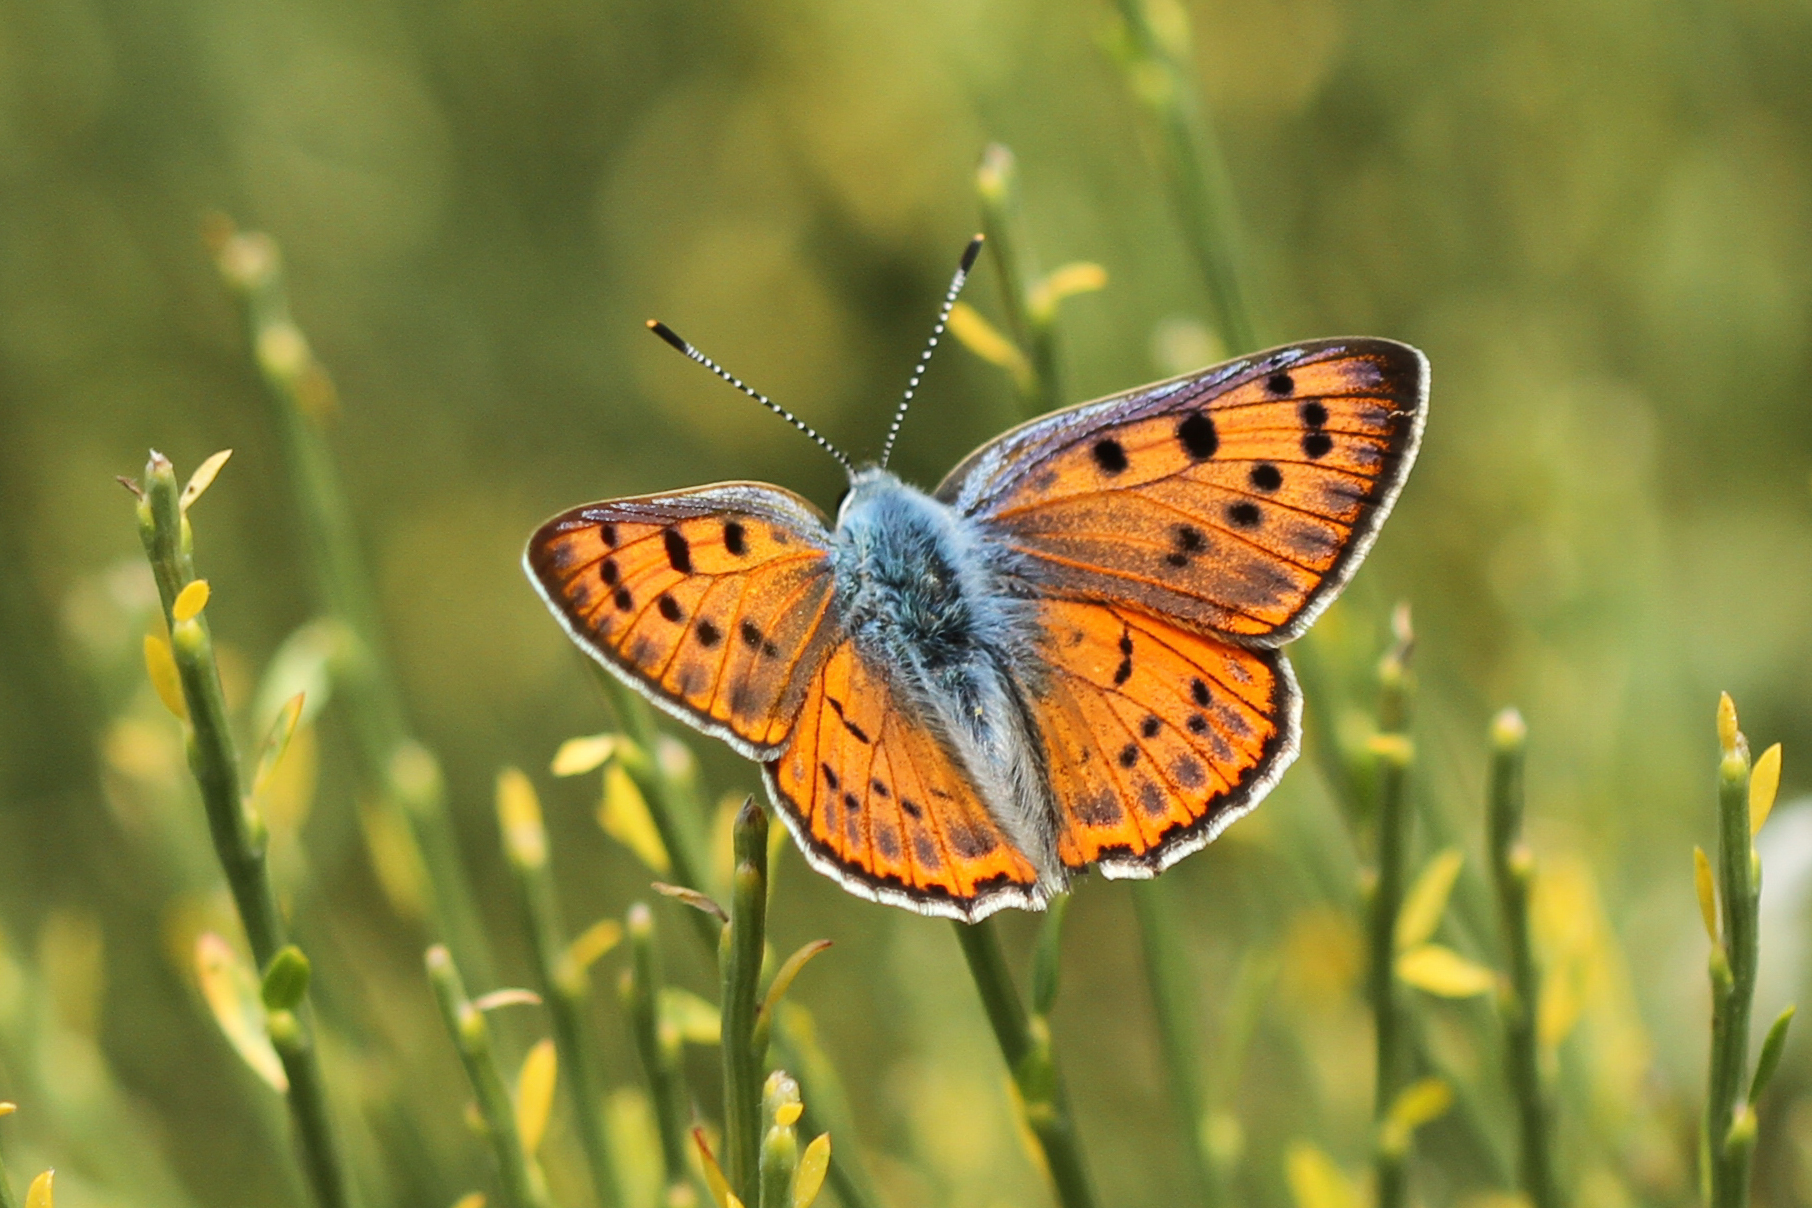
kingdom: Animalia
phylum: Arthropoda
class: Insecta
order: Lepidoptera
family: Lycaenidae
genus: Lycaena
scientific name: Lycaena alciphron
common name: Purple-shot copper
